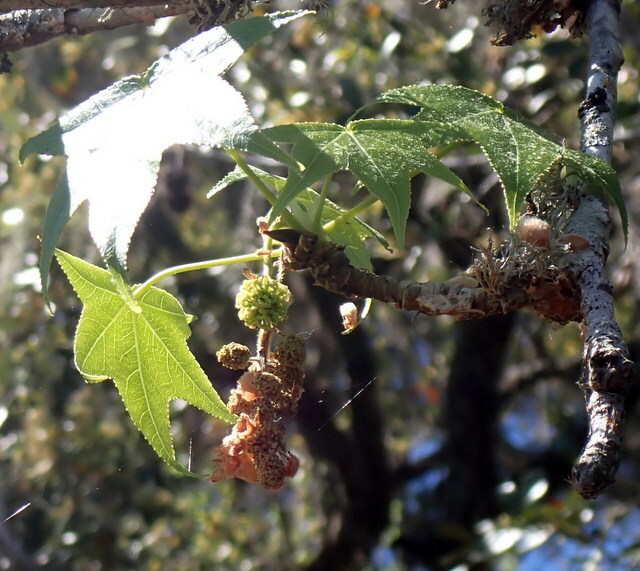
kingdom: Plantae
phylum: Tracheophyta
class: Magnoliopsida
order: Saxifragales
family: Altingiaceae
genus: Liquidambar
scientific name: Liquidambar styraciflua
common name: Sweet gum
